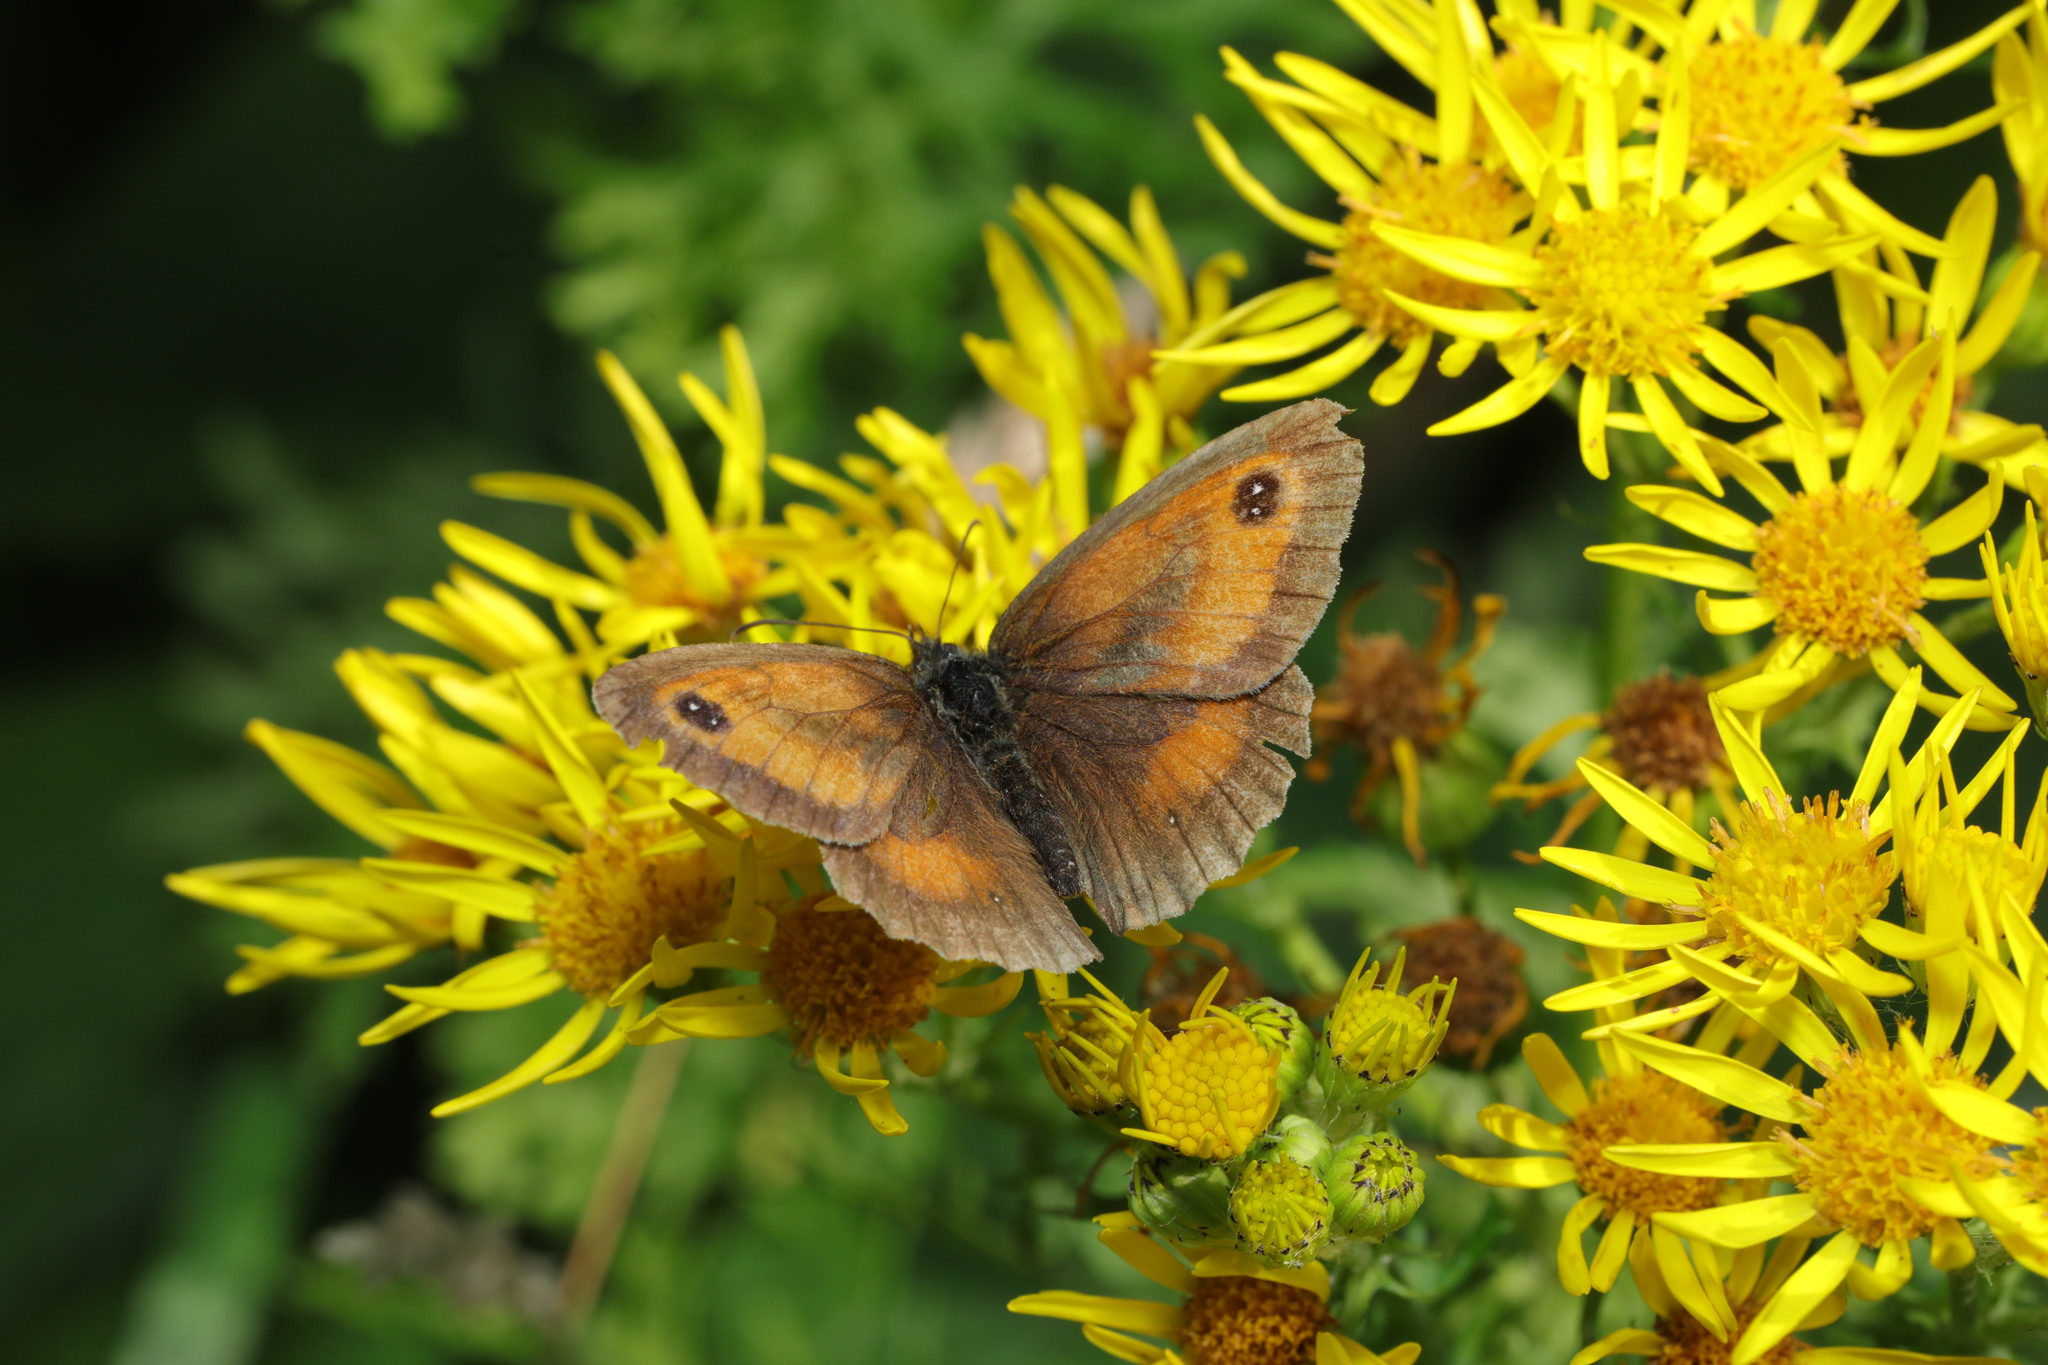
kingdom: Animalia
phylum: Arthropoda
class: Insecta
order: Lepidoptera
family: Nymphalidae
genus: Pyronia
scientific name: Pyronia tithonus
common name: Gatekeeper
